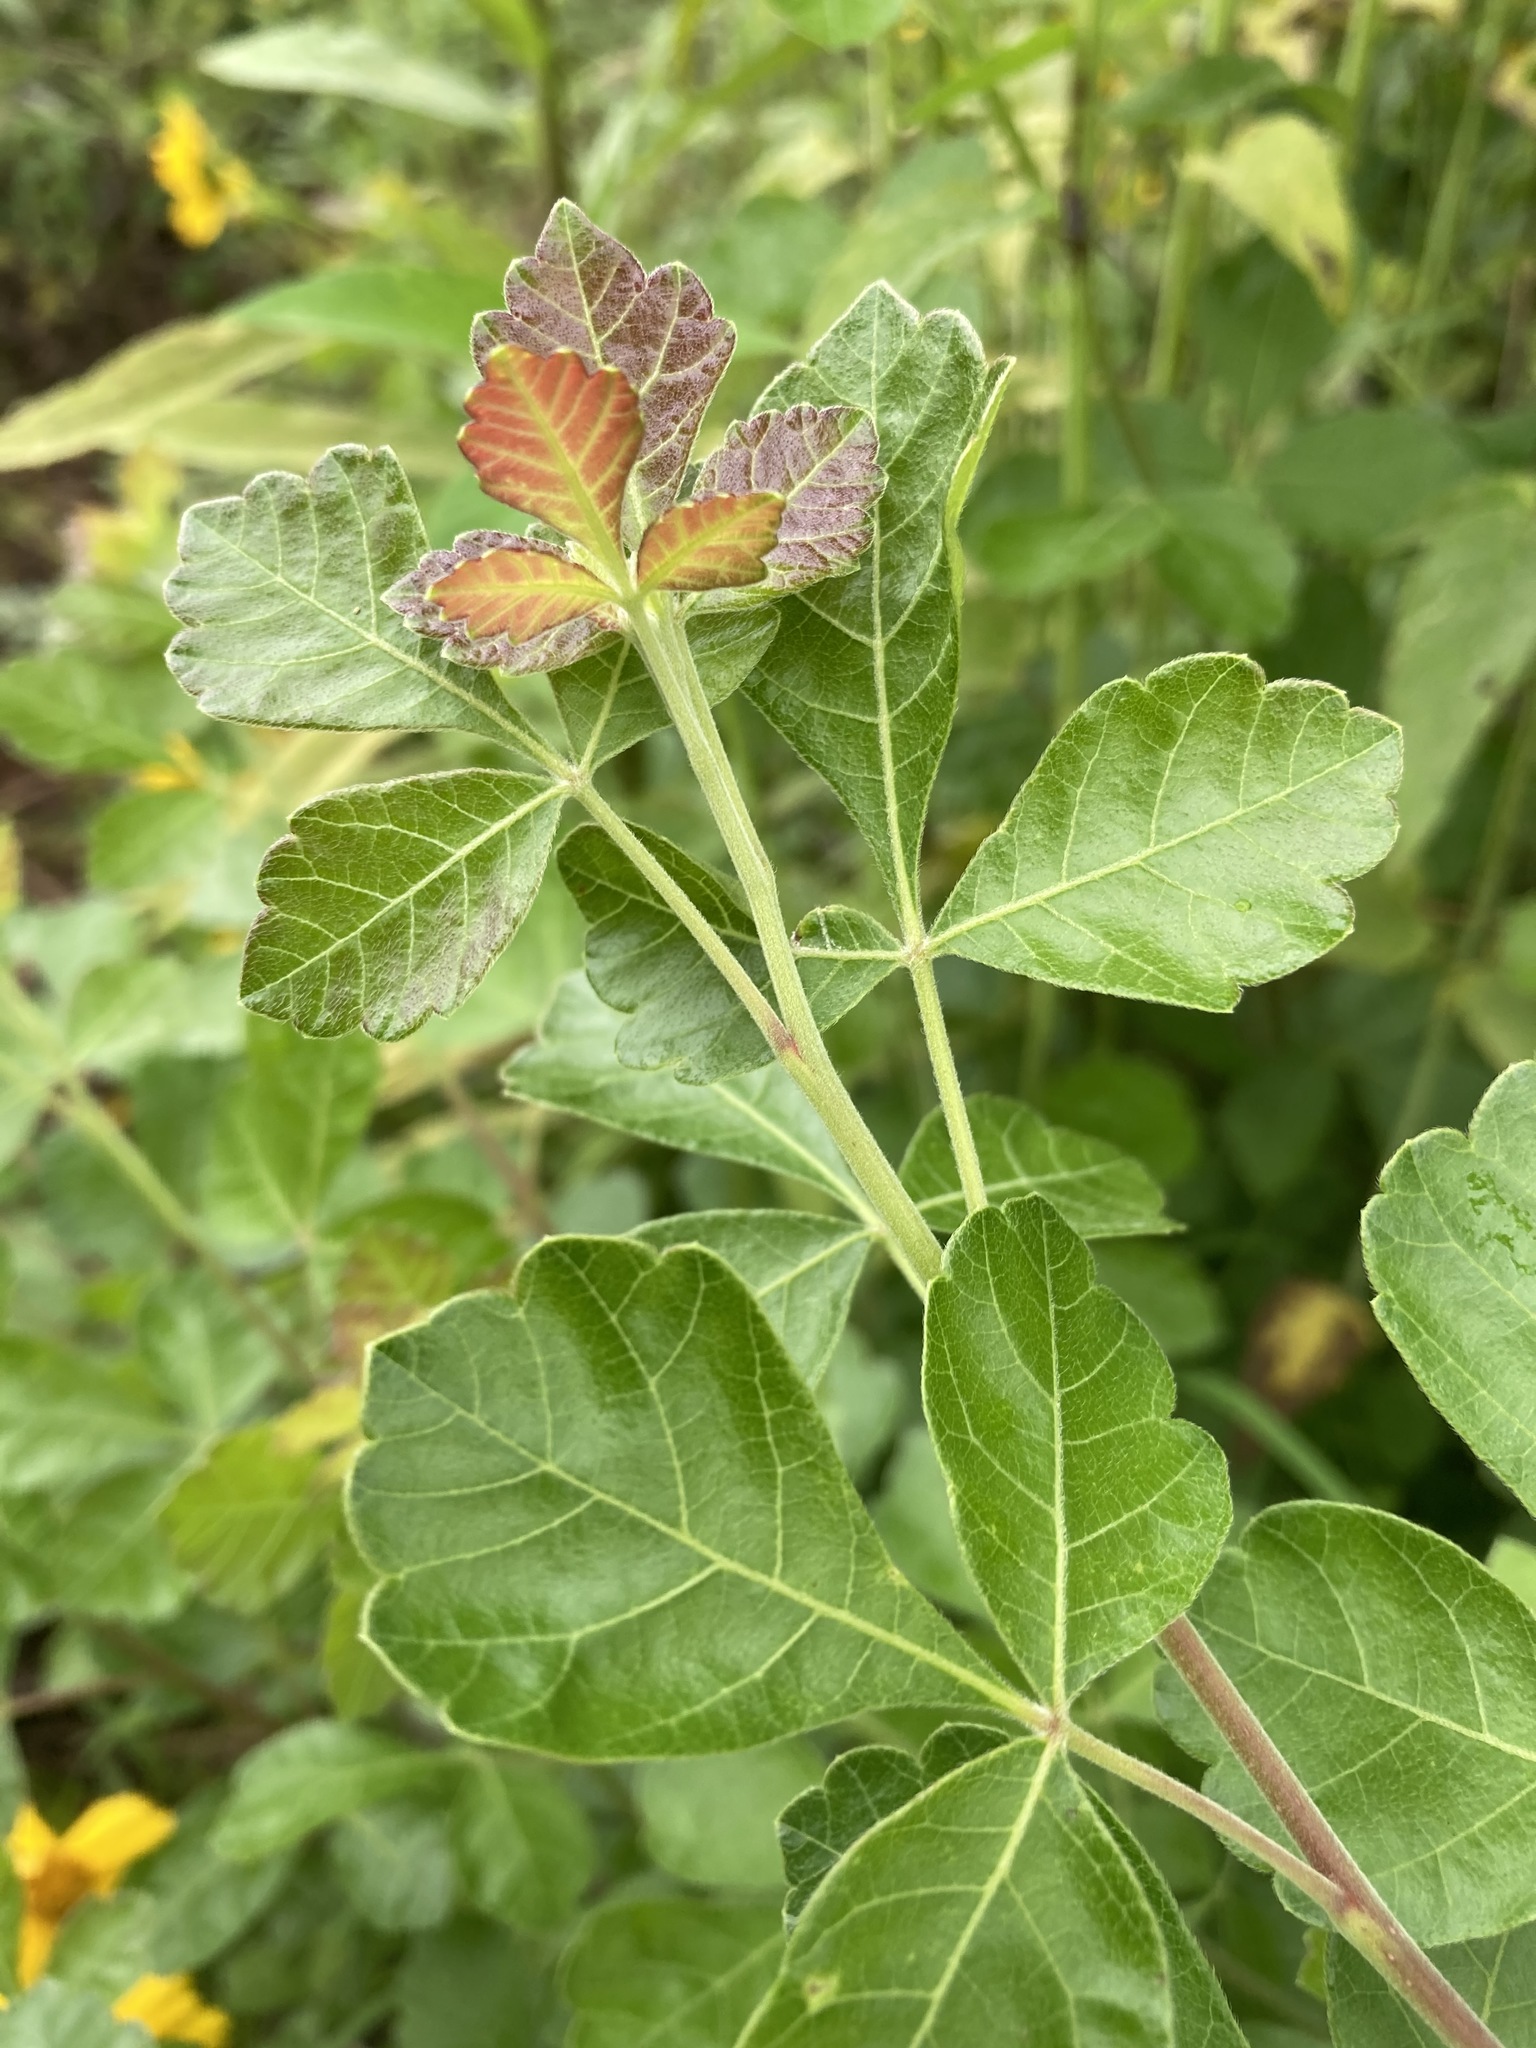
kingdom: Plantae
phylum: Tracheophyta
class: Magnoliopsida
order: Sapindales
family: Anacardiaceae
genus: Rhus
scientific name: Rhus aromatica
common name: Aromatic sumac
